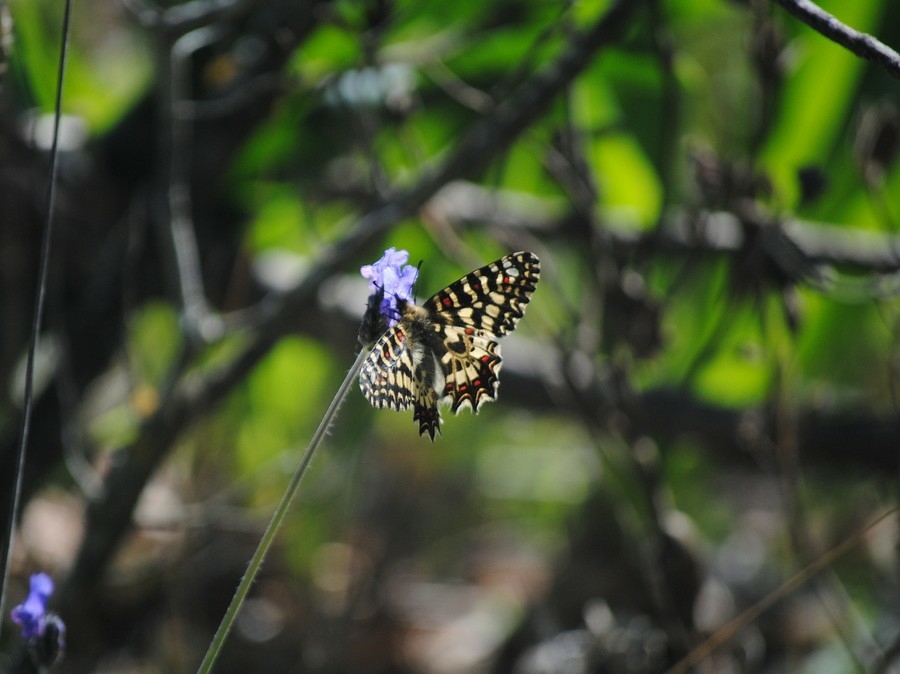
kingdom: Animalia
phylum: Arthropoda
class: Insecta
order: Lepidoptera
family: Papilionidae
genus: Zerynthia
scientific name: Zerynthia rumina
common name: Spanish festoon
